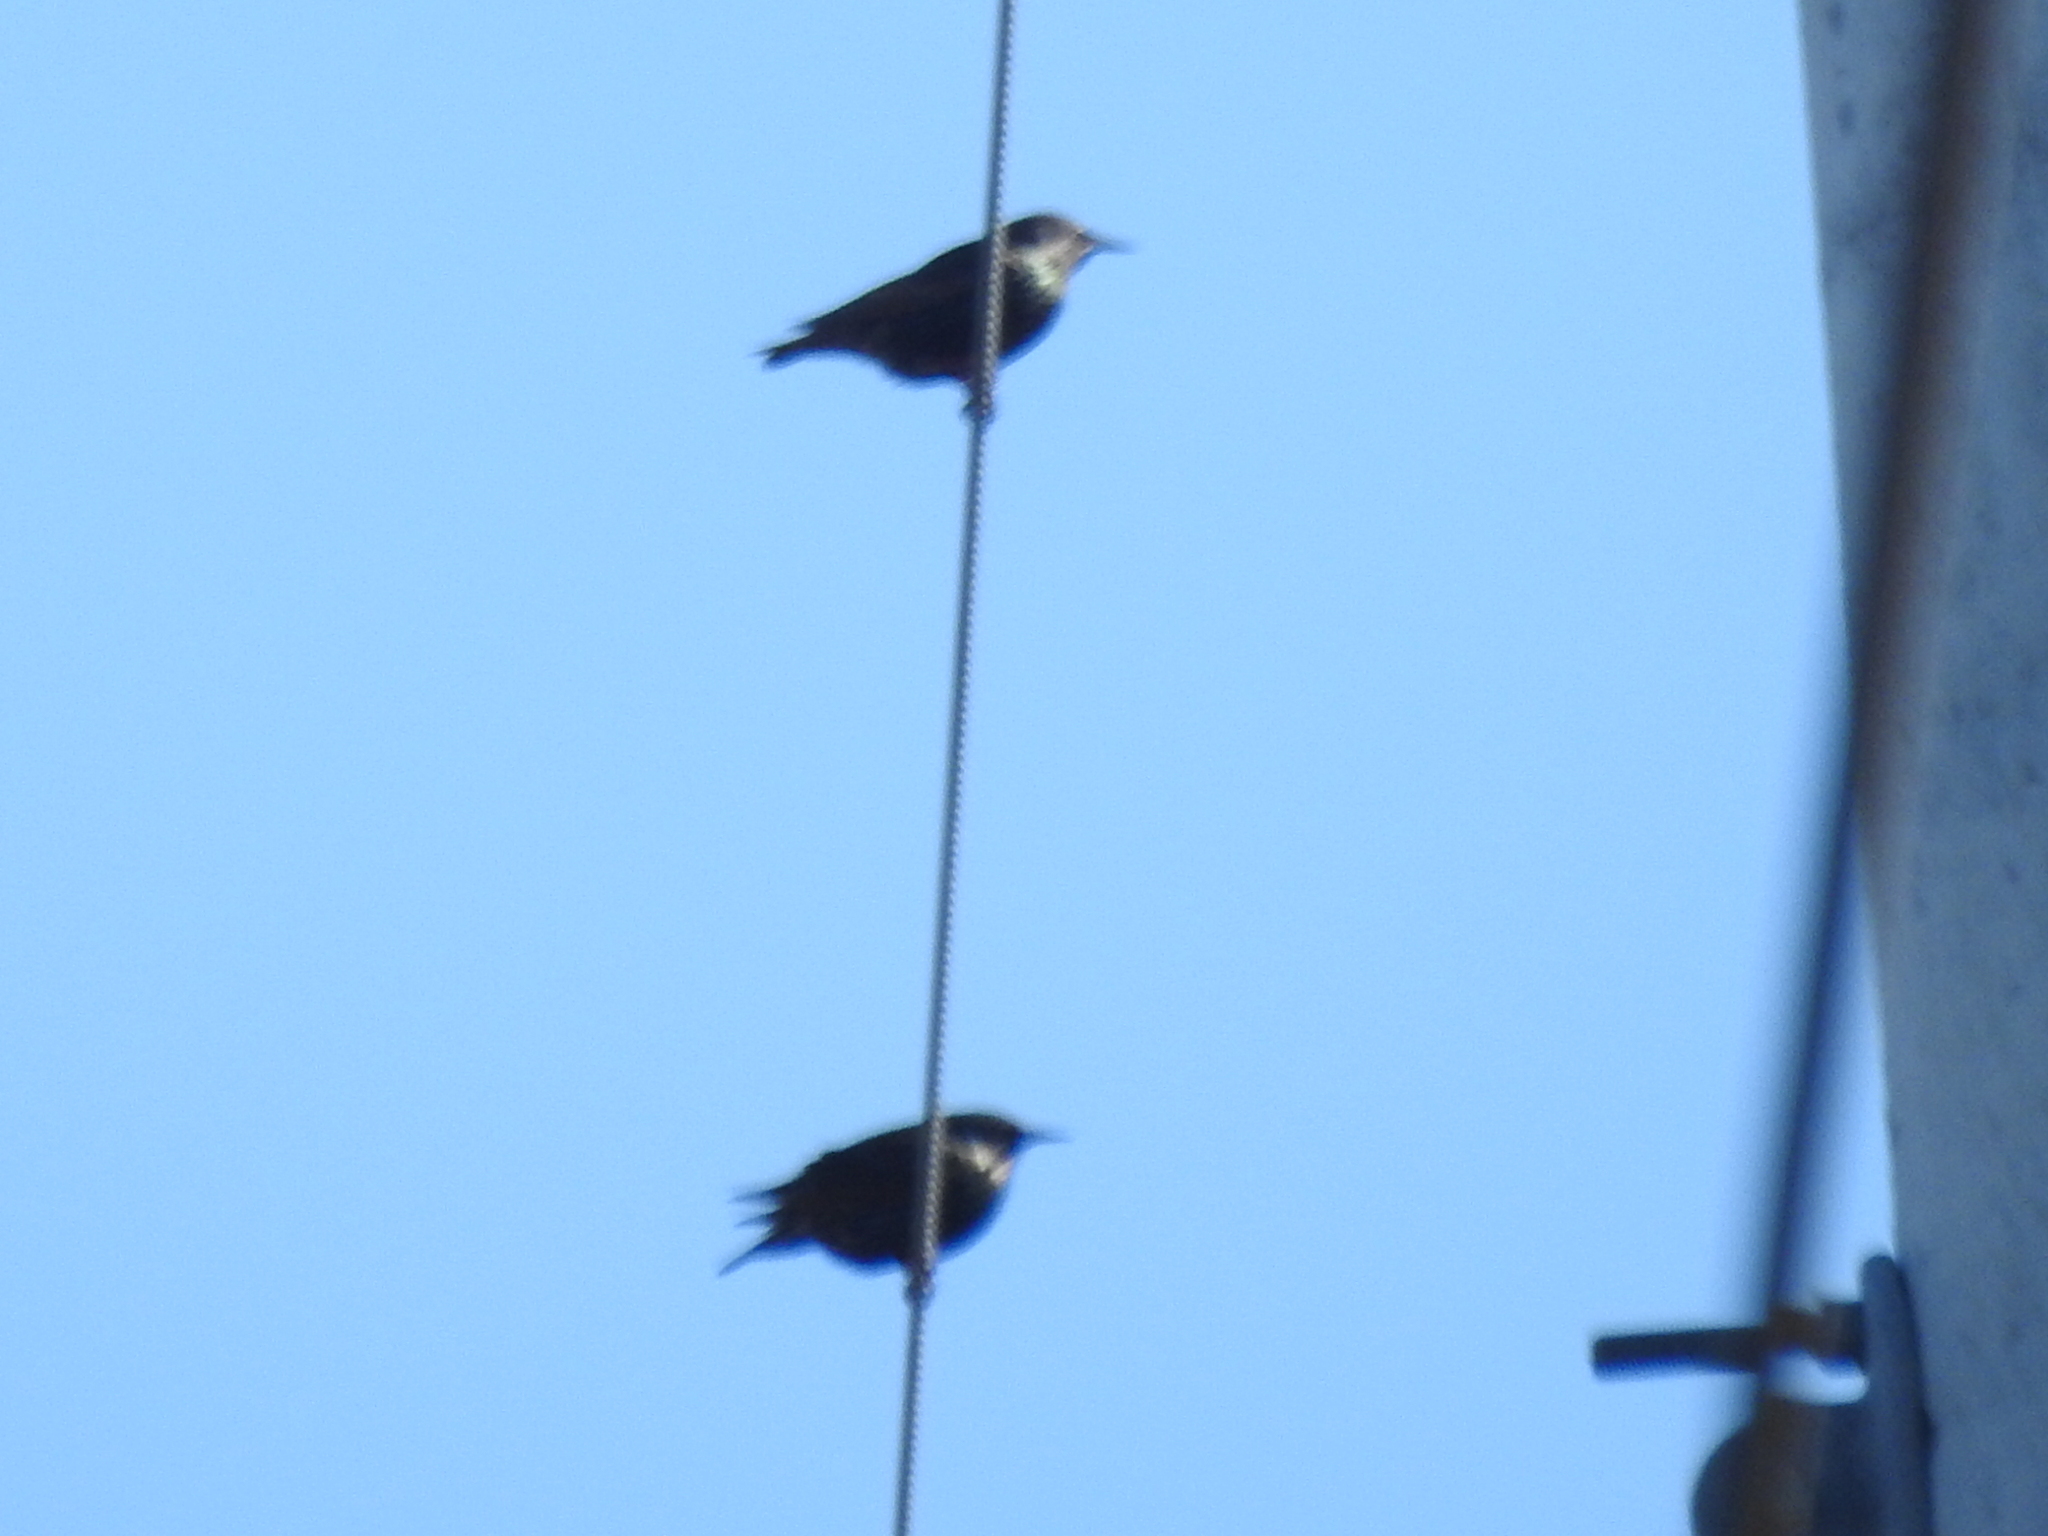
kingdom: Animalia
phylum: Chordata
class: Aves
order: Passeriformes
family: Sturnidae
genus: Sturnus
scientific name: Sturnus vulgaris
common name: Common starling
